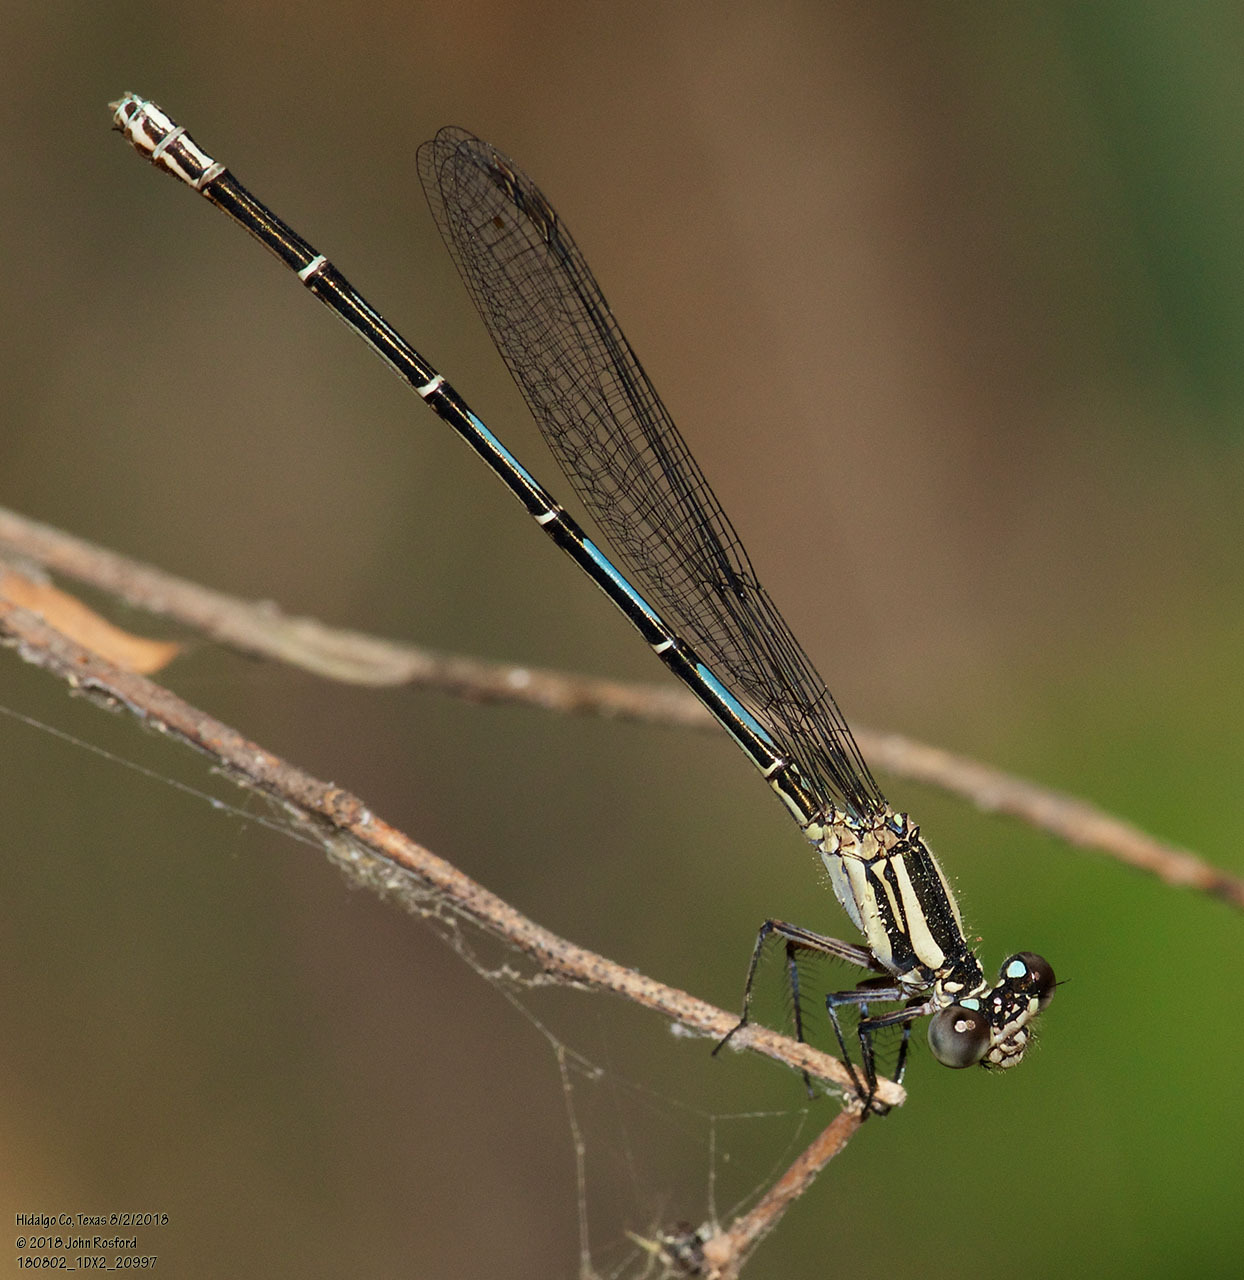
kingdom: Animalia
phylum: Arthropoda
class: Insecta
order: Odonata
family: Coenagrionidae
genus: Argia
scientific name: Argia translata
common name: Dusky dancer
